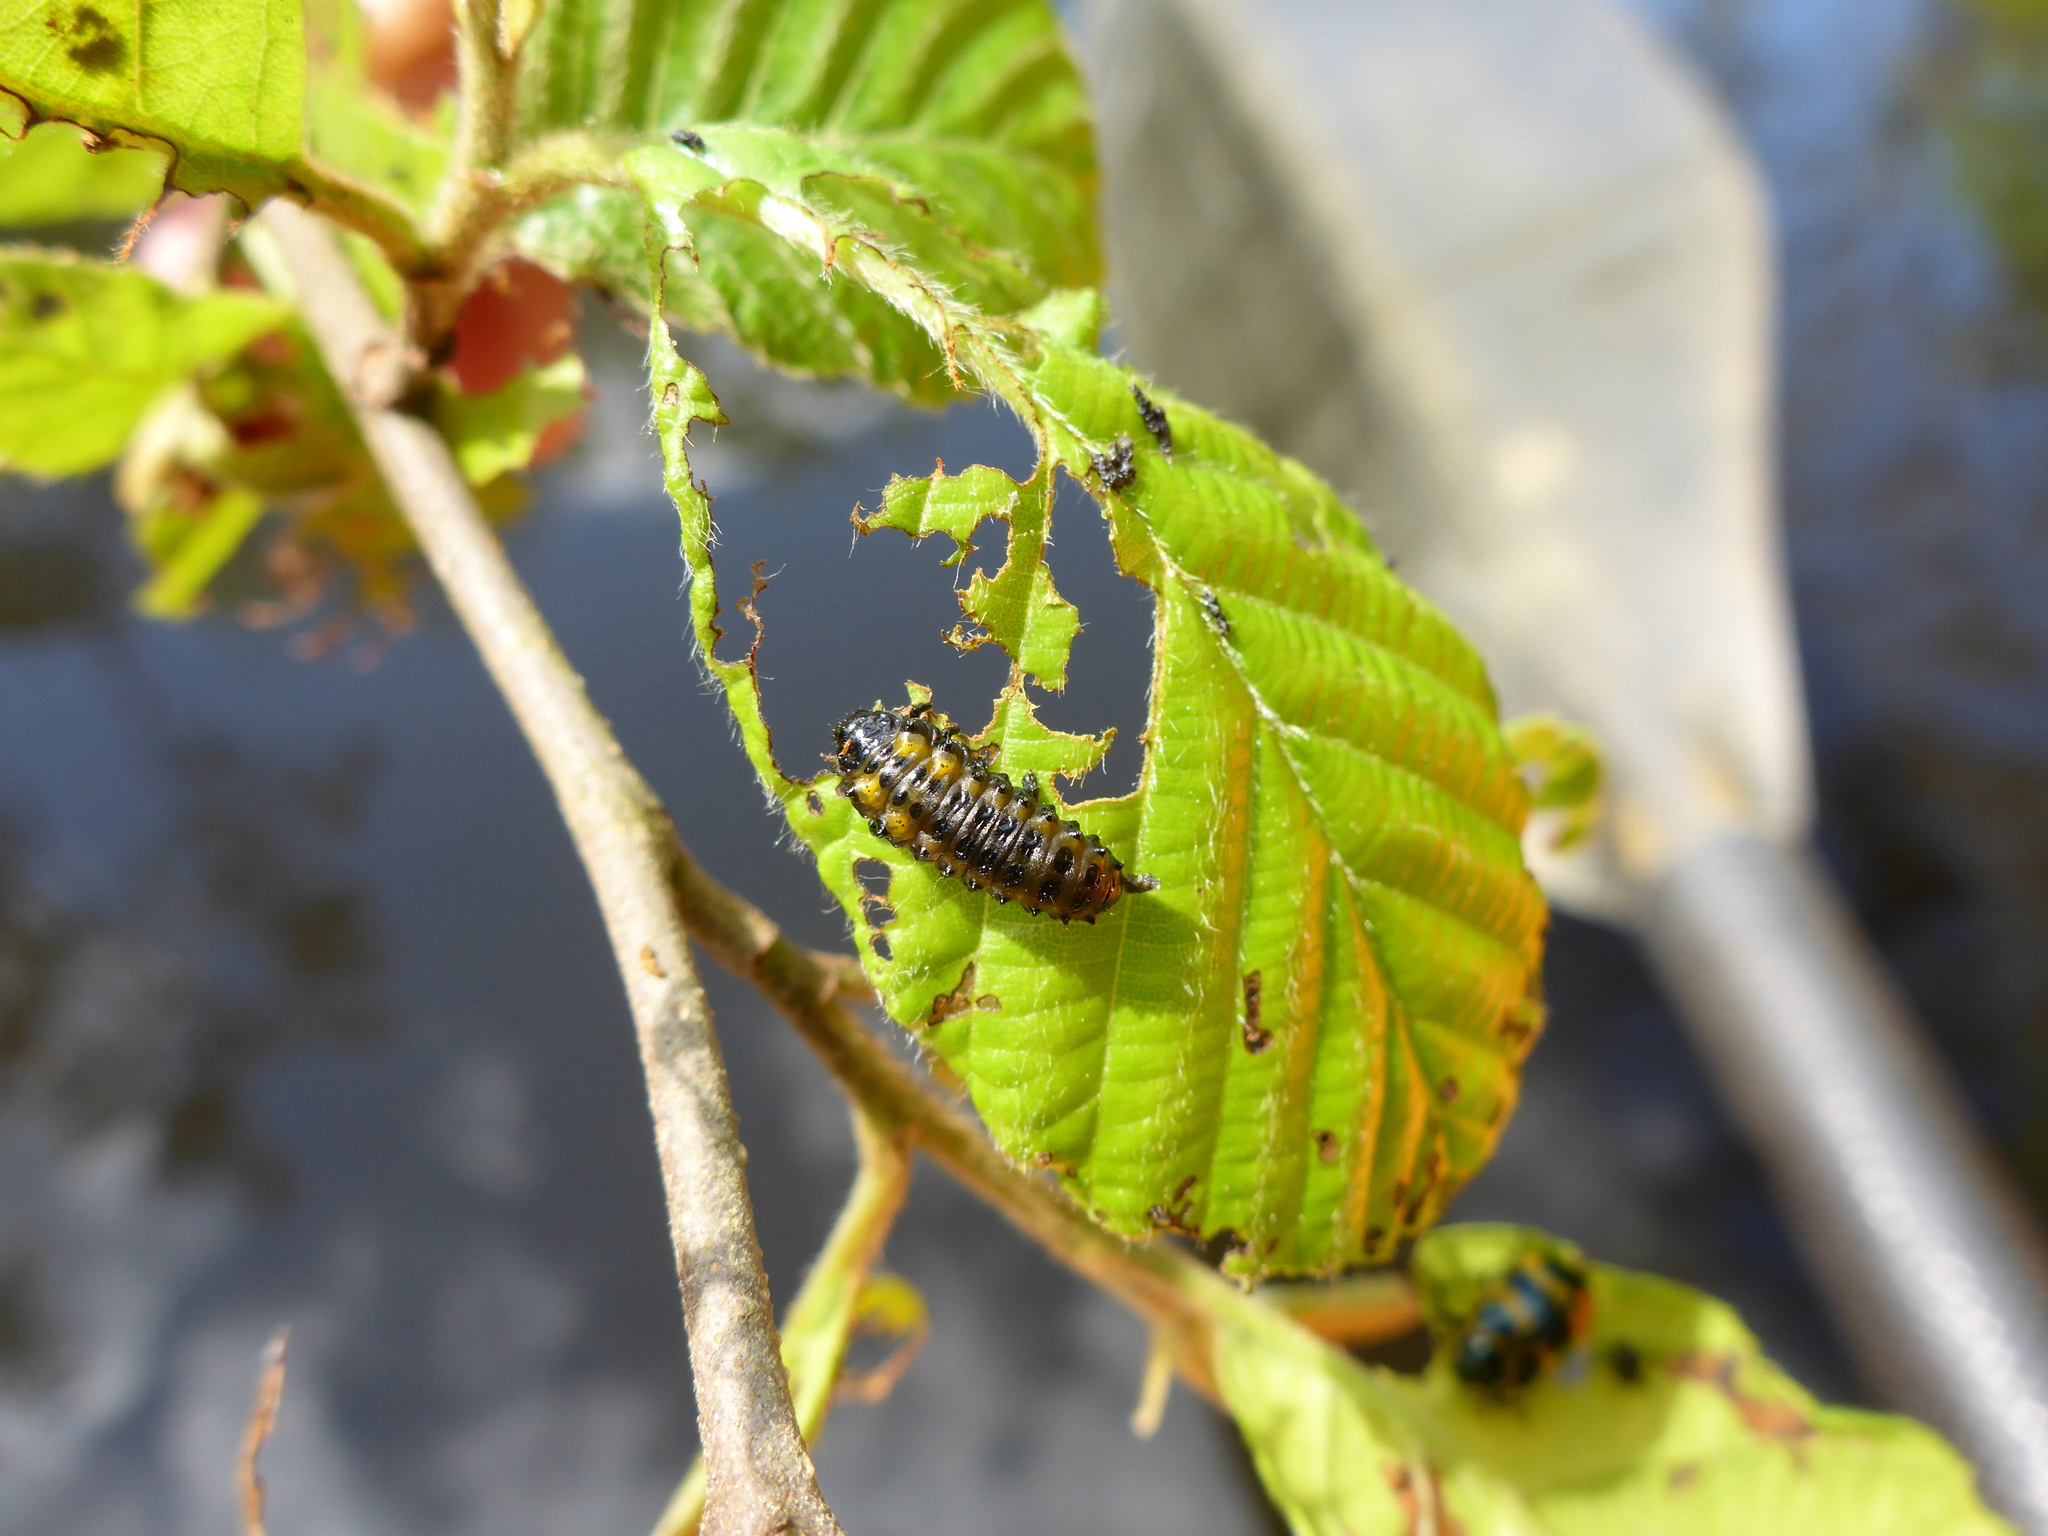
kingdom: Animalia
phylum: Arthropoda
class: Insecta
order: Coleoptera
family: Chrysomelidae
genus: Chrysomela
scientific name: Chrysomela interrupta
